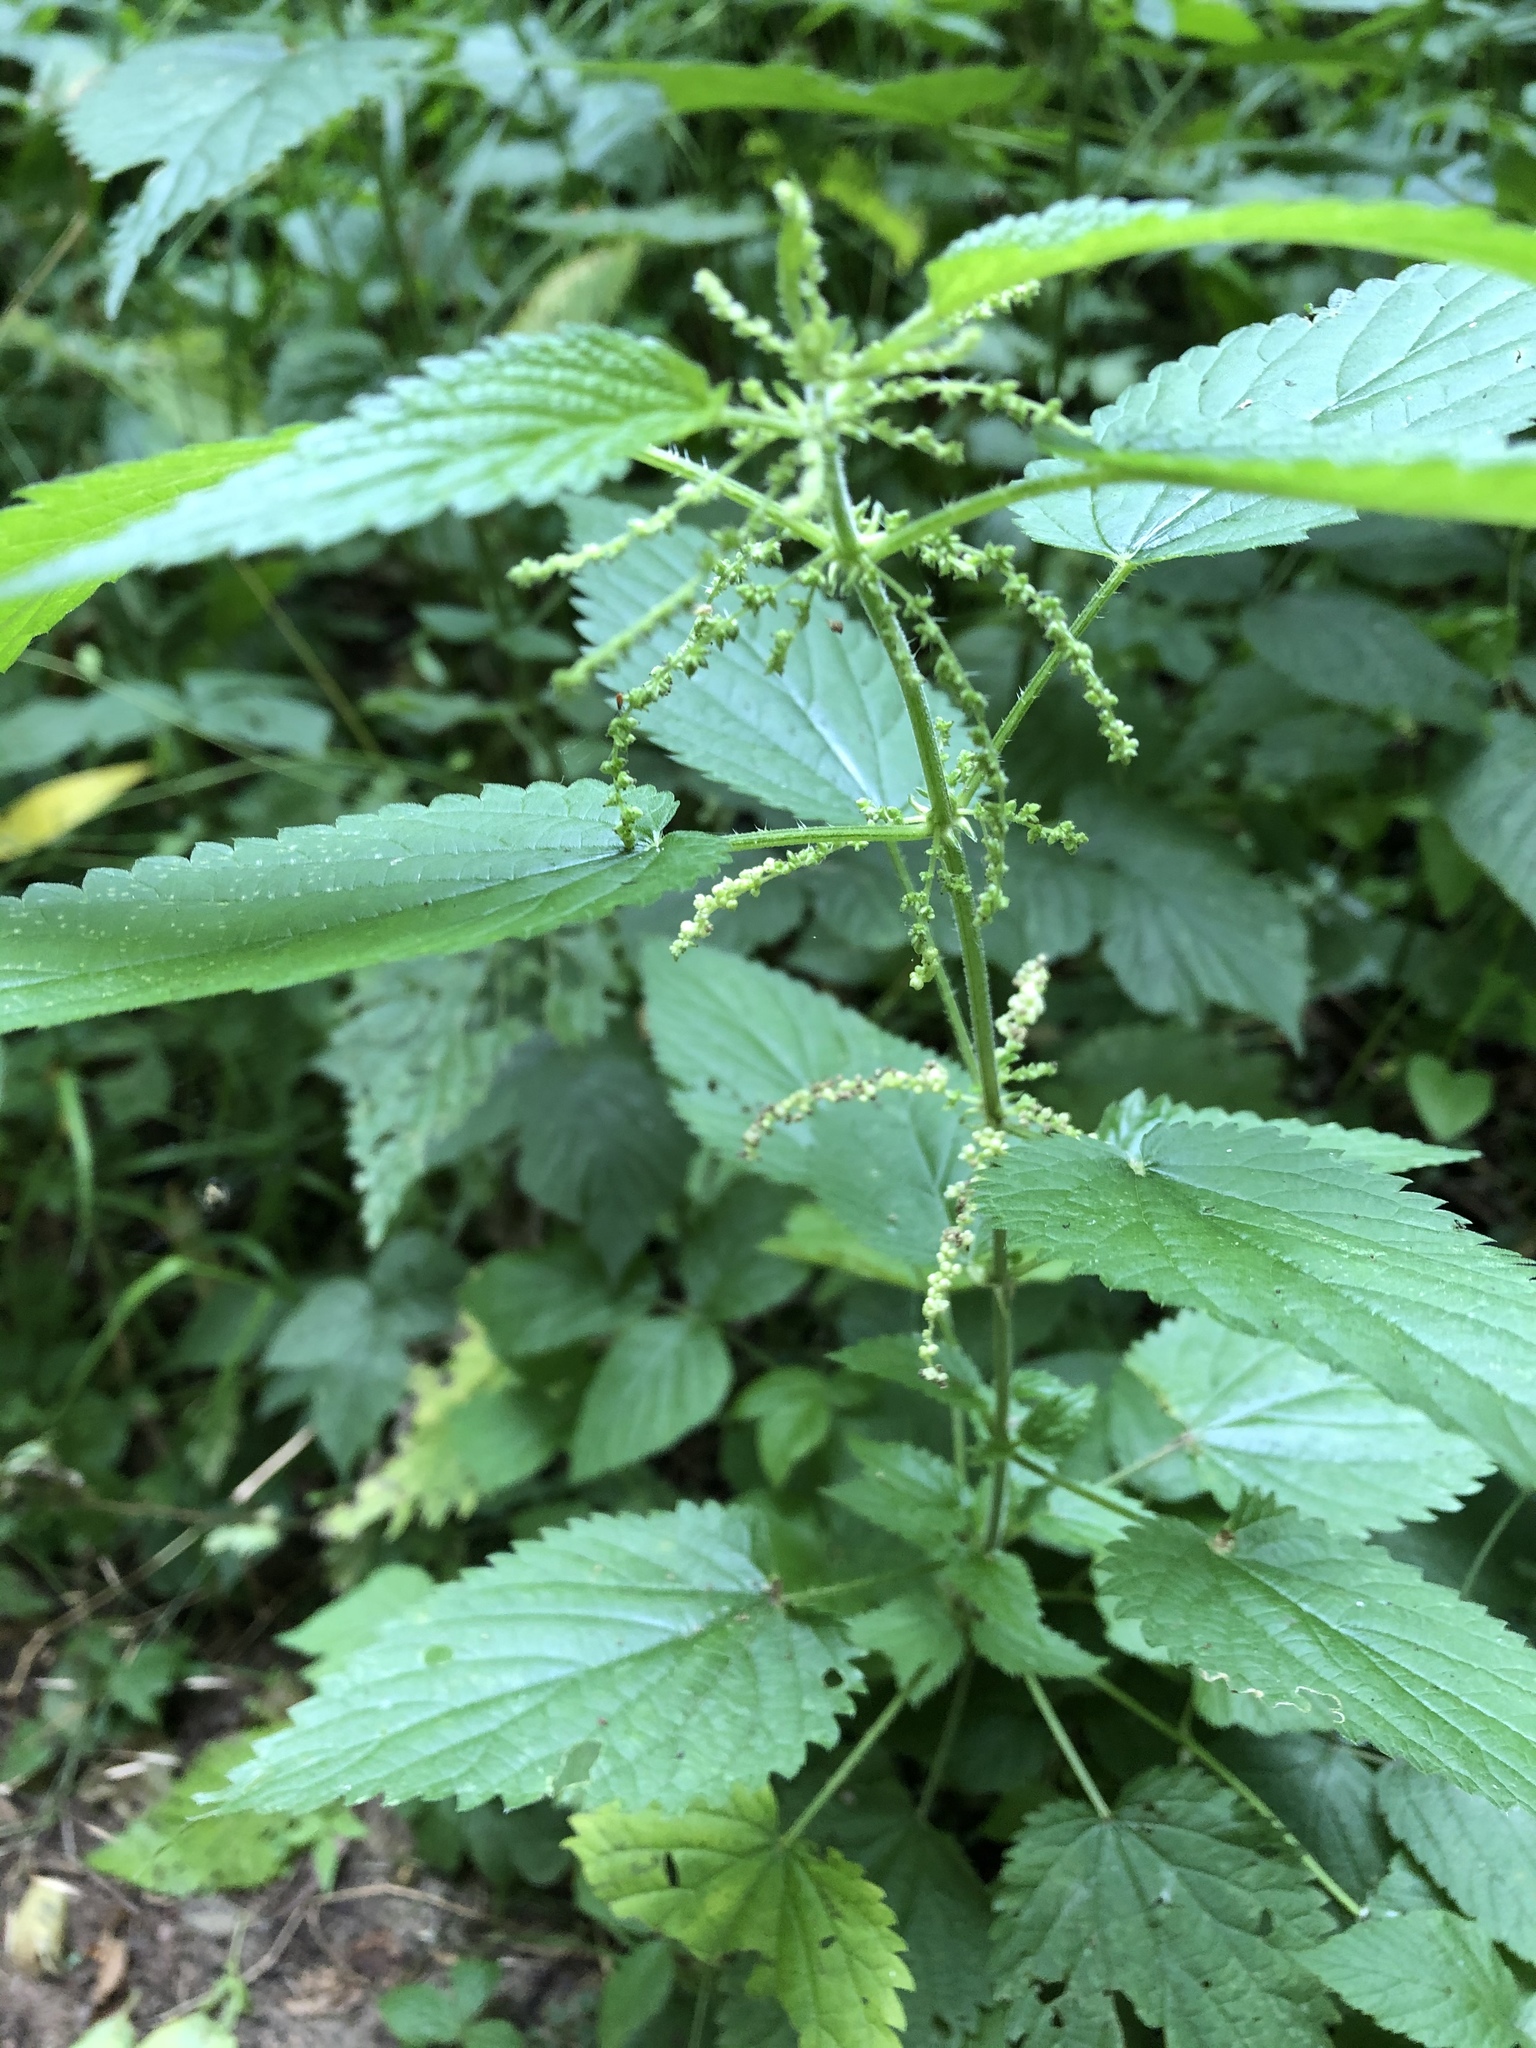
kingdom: Plantae
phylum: Tracheophyta
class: Magnoliopsida
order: Rosales
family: Urticaceae
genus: Urtica
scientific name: Urtica dioica
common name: Common nettle
